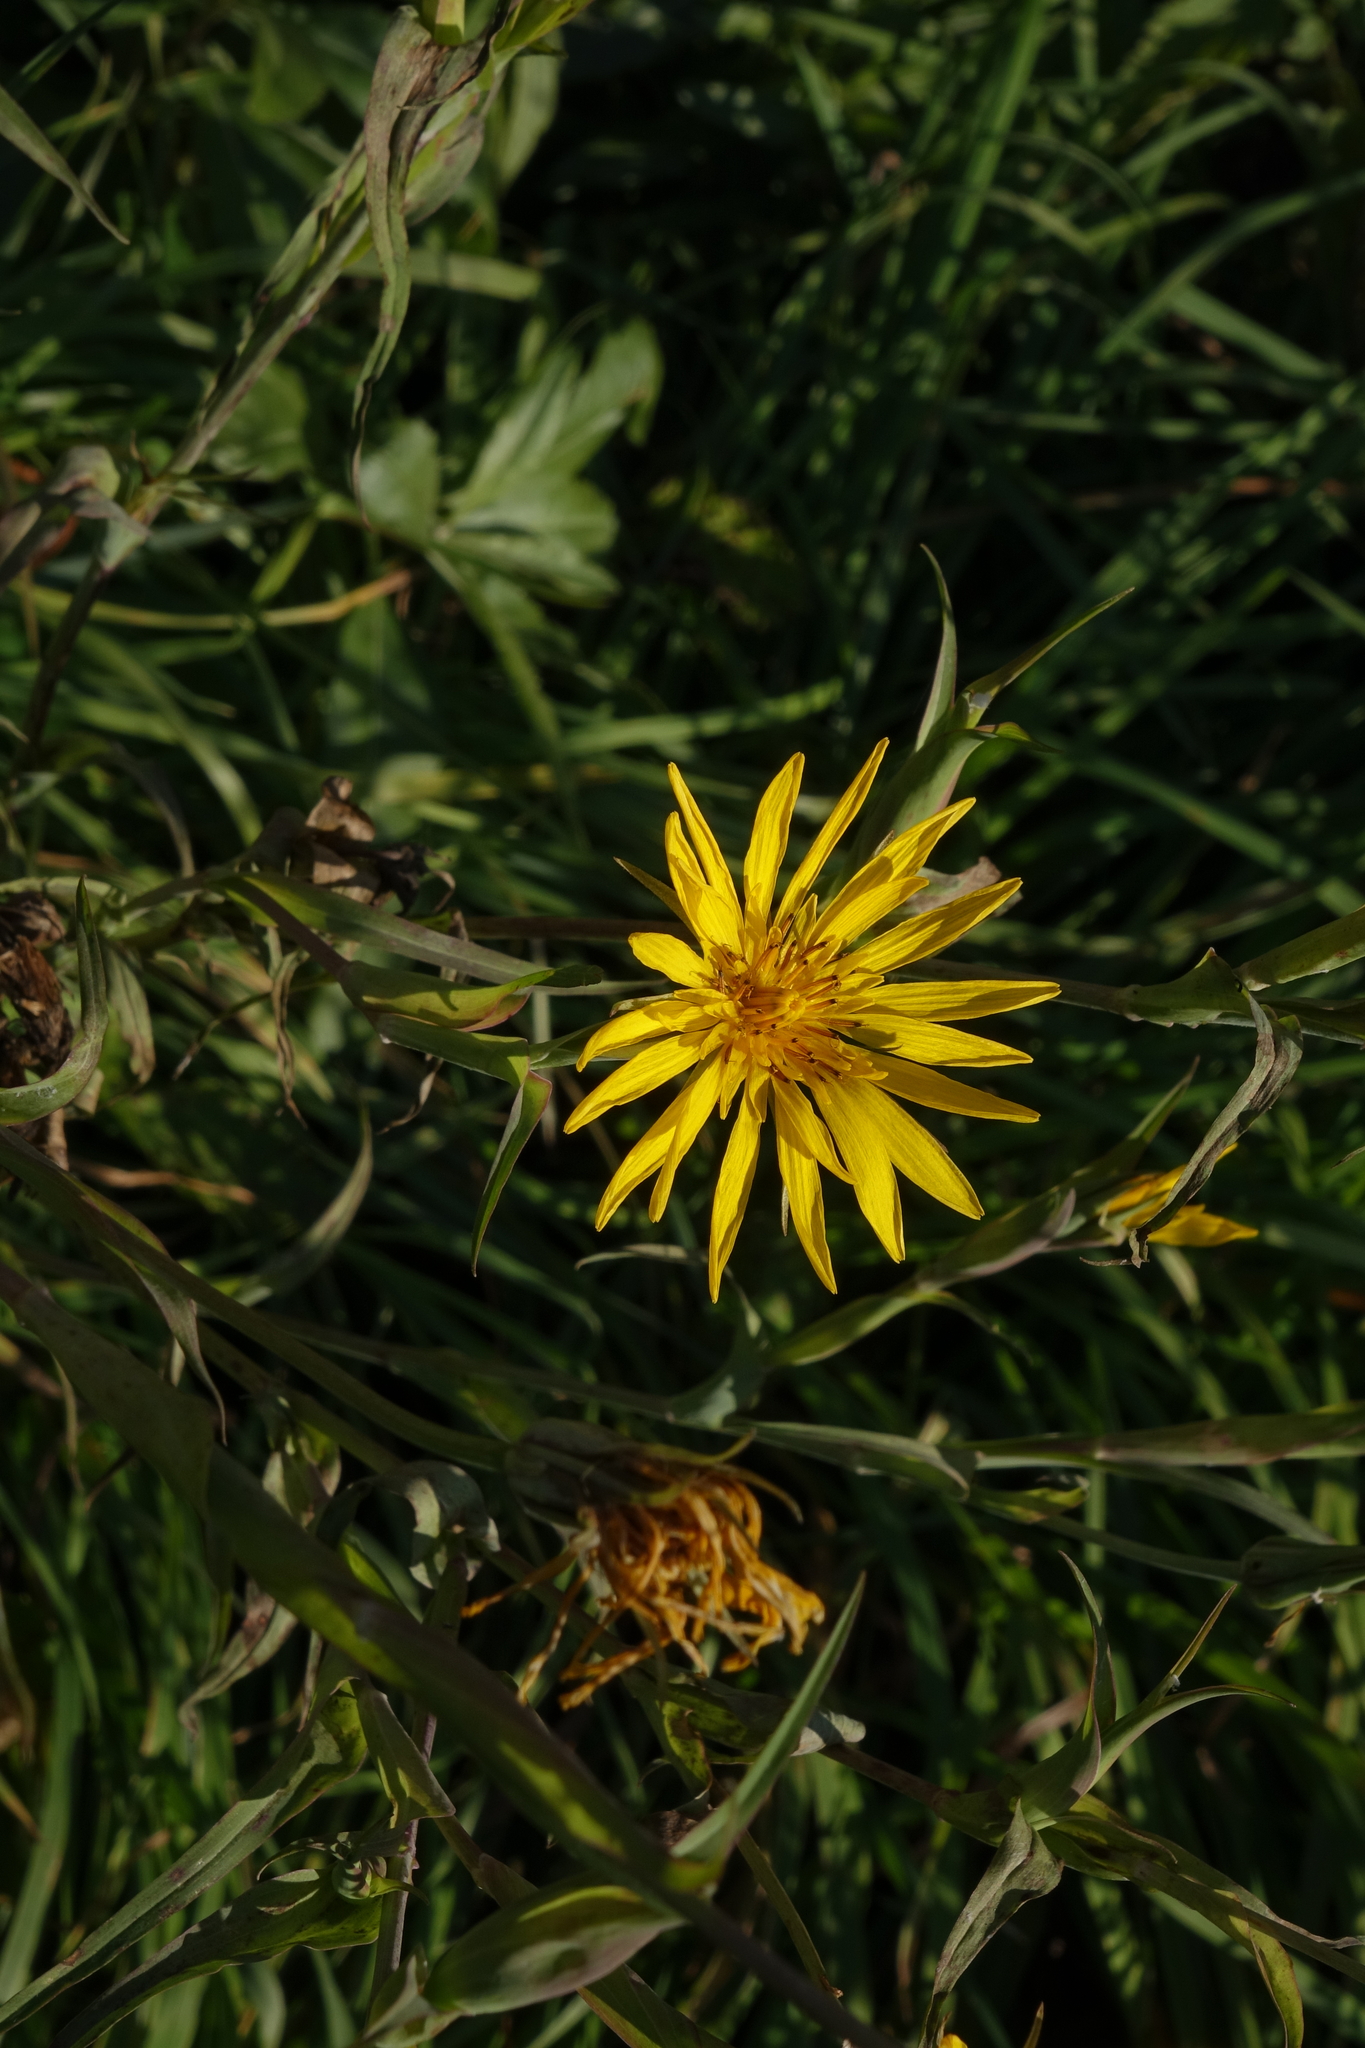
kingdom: Plantae
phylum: Tracheophyta
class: Magnoliopsida
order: Asterales
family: Asteraceae
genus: Tragopogon
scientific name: Tragopogon orientalis
